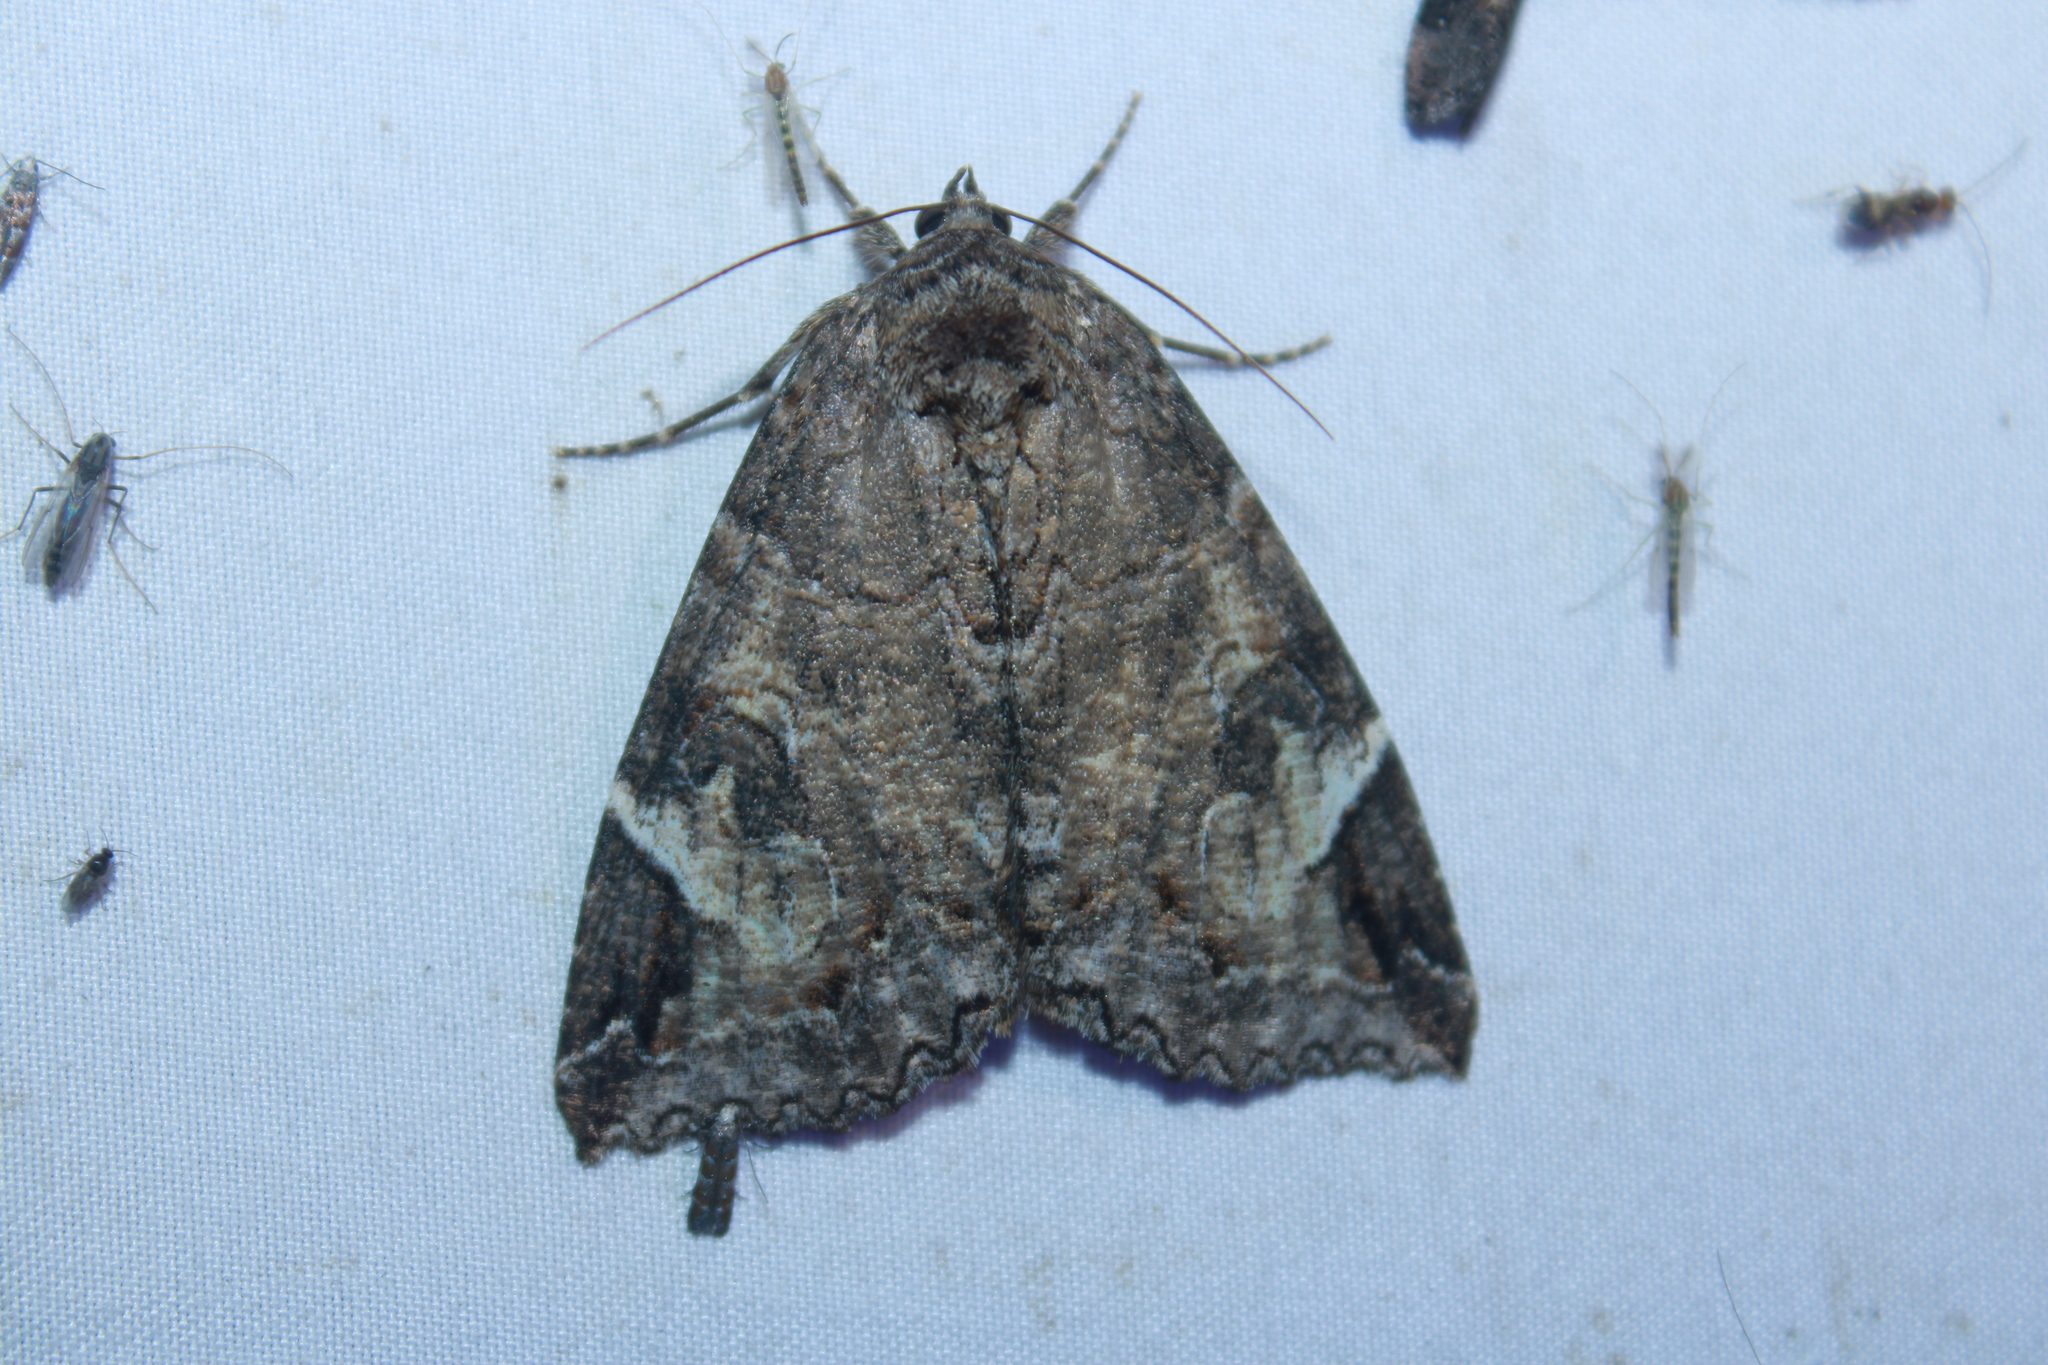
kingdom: Animalia
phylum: Arthropoda
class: Insecta
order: Lepidoptera
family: Erebidae
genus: Euparthenos
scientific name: Euparthenos nubilis
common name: Locust underwing
